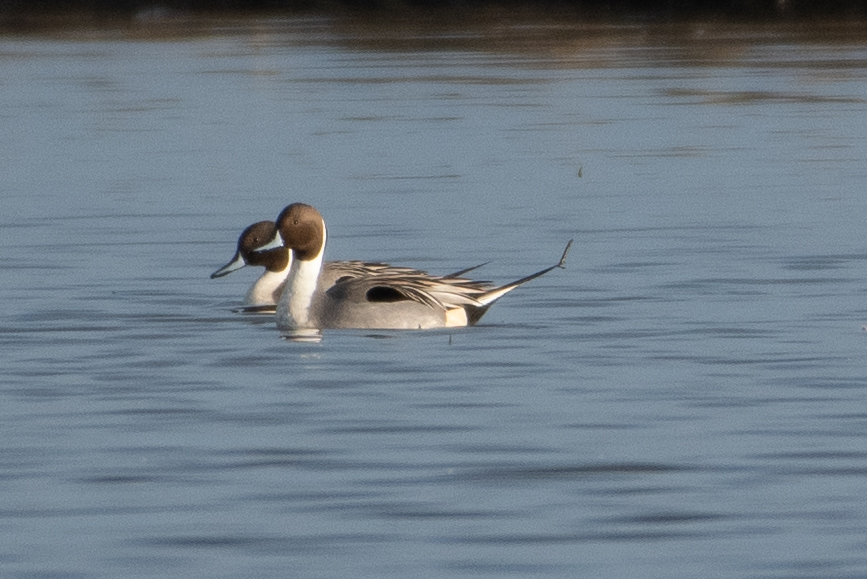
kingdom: Animalia
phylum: Chordata
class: Aves
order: Anseriformes
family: Anatidae
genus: Anas
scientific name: Anas acuta
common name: Northern pintail
